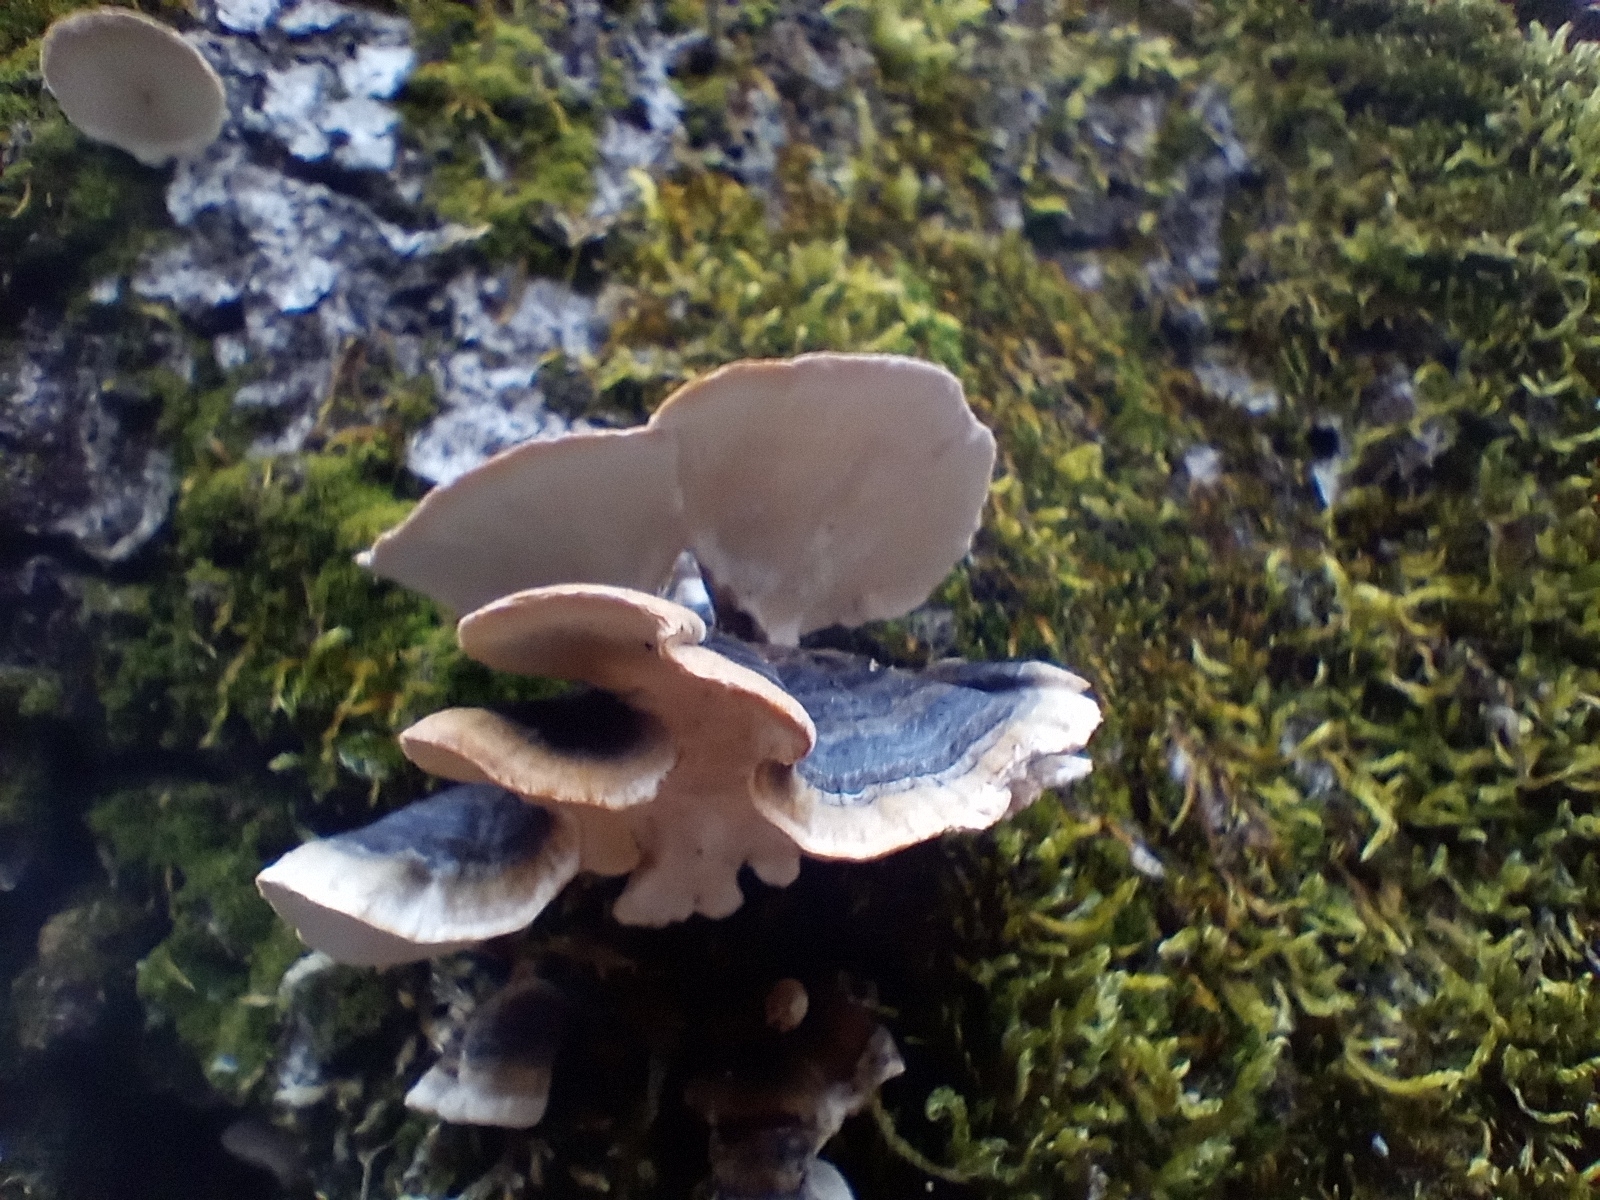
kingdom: Fungi
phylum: Basidiomycota
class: Agaricomycetes
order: Polyporales
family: Polyporaceae
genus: Trametes
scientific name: Trametes versicolor
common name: Turkeytail
